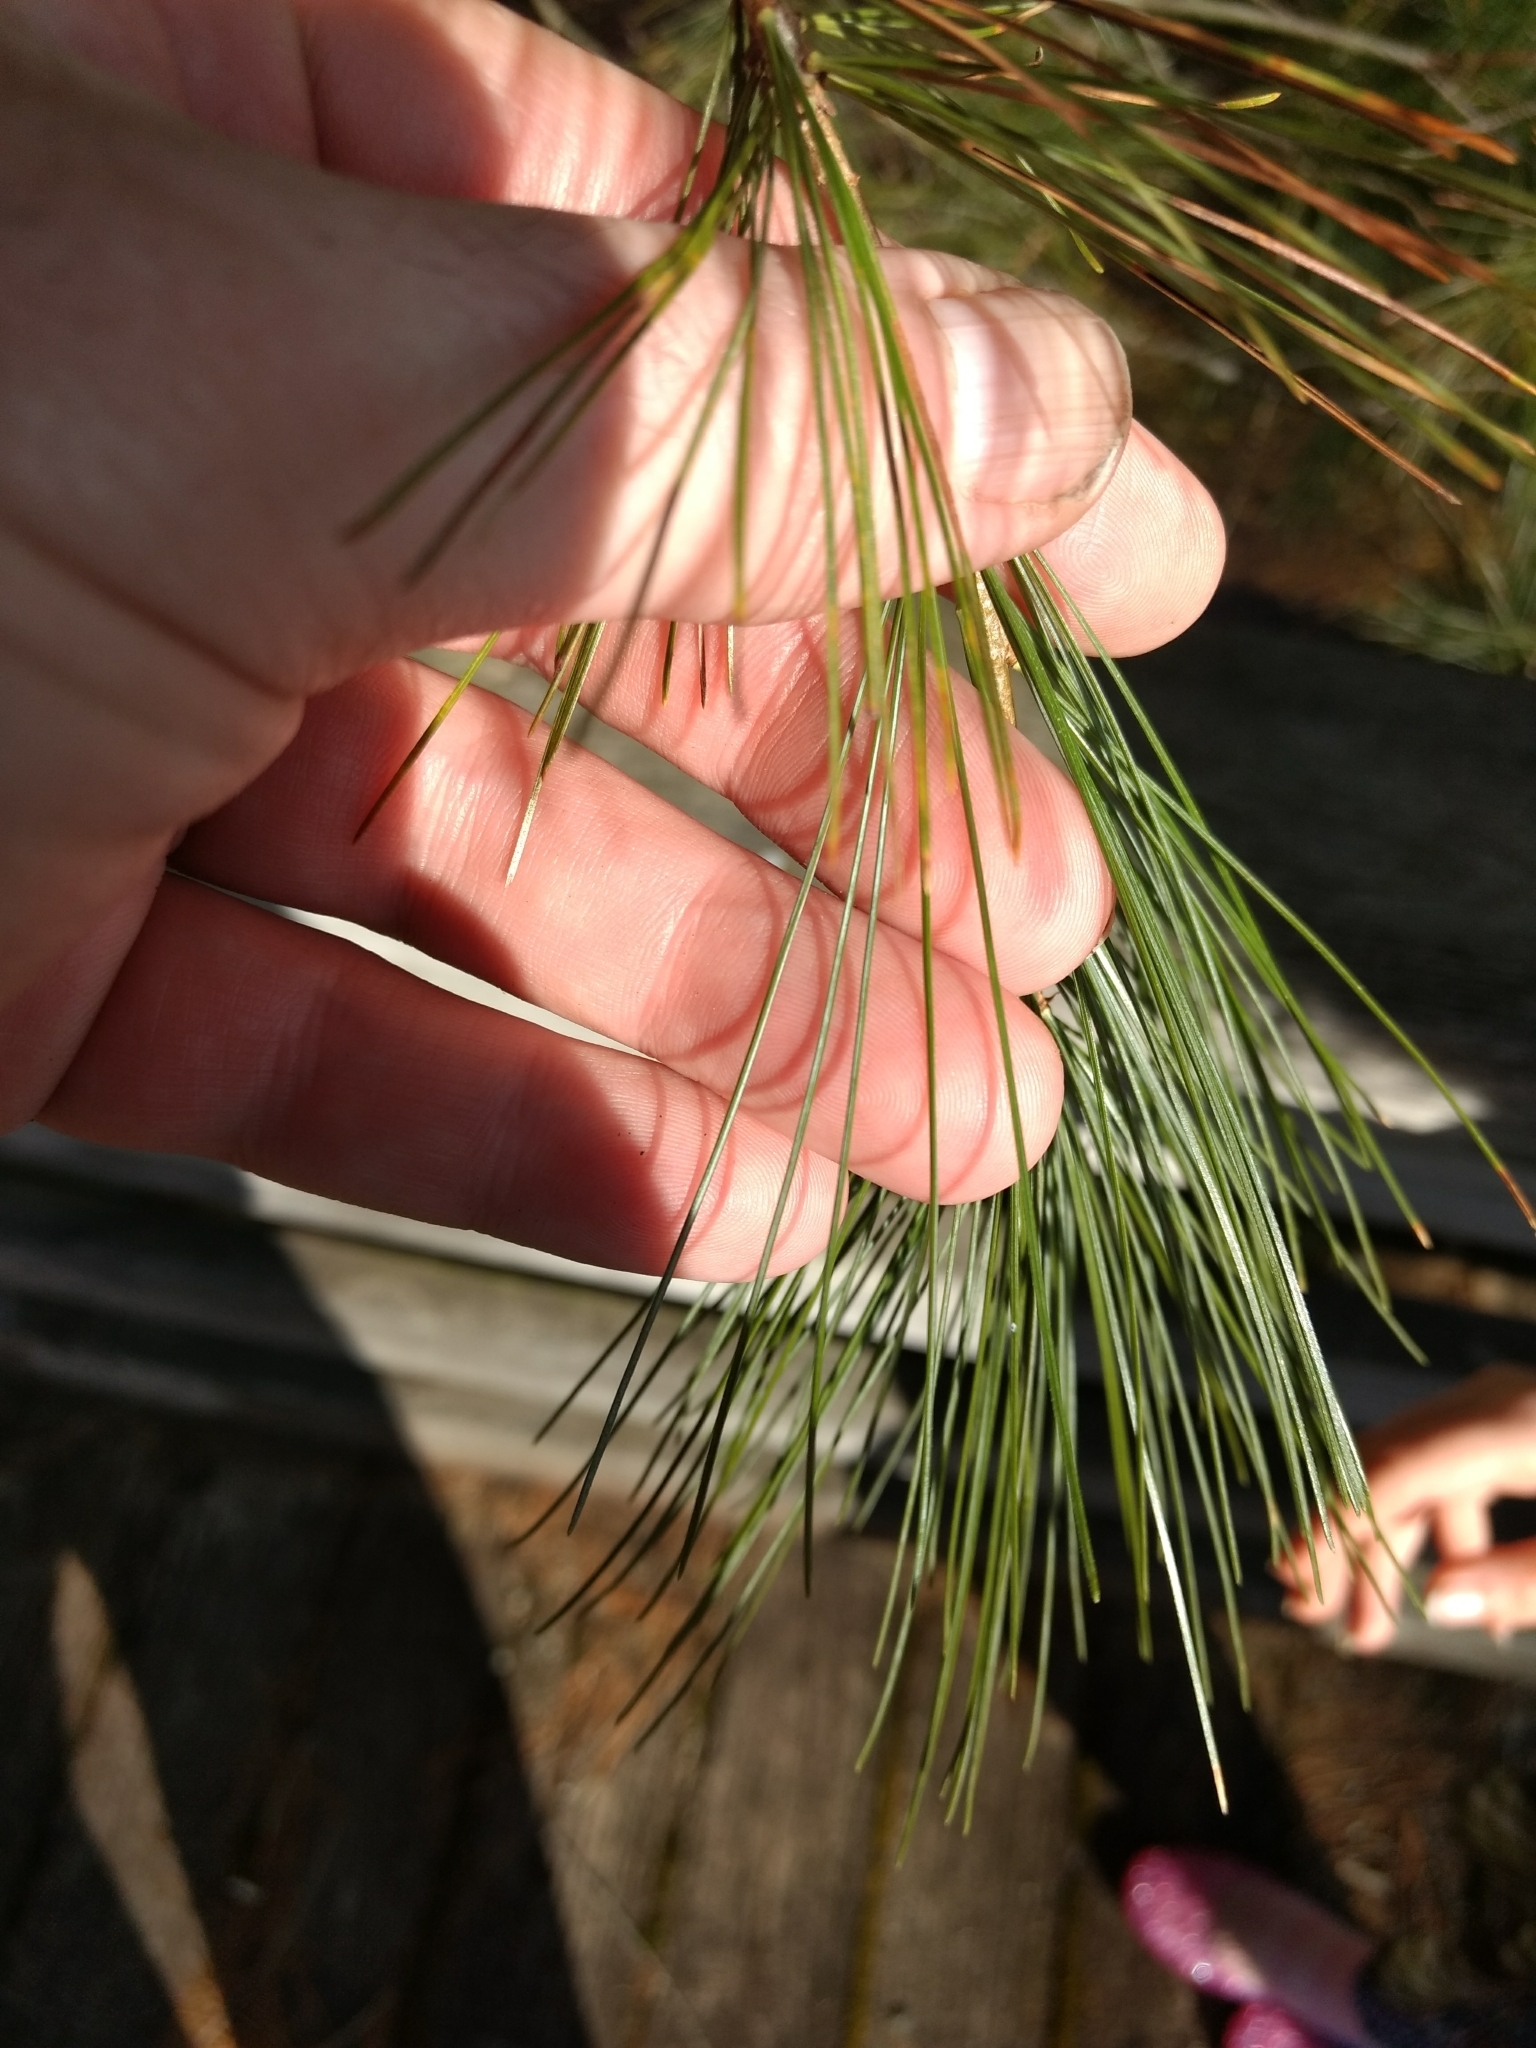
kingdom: Plantae
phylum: Tracheophyta
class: Pinopsida
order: Pinales
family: Pinaceae
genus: Pinus
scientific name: Pinus strobus
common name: Weymouth pine
